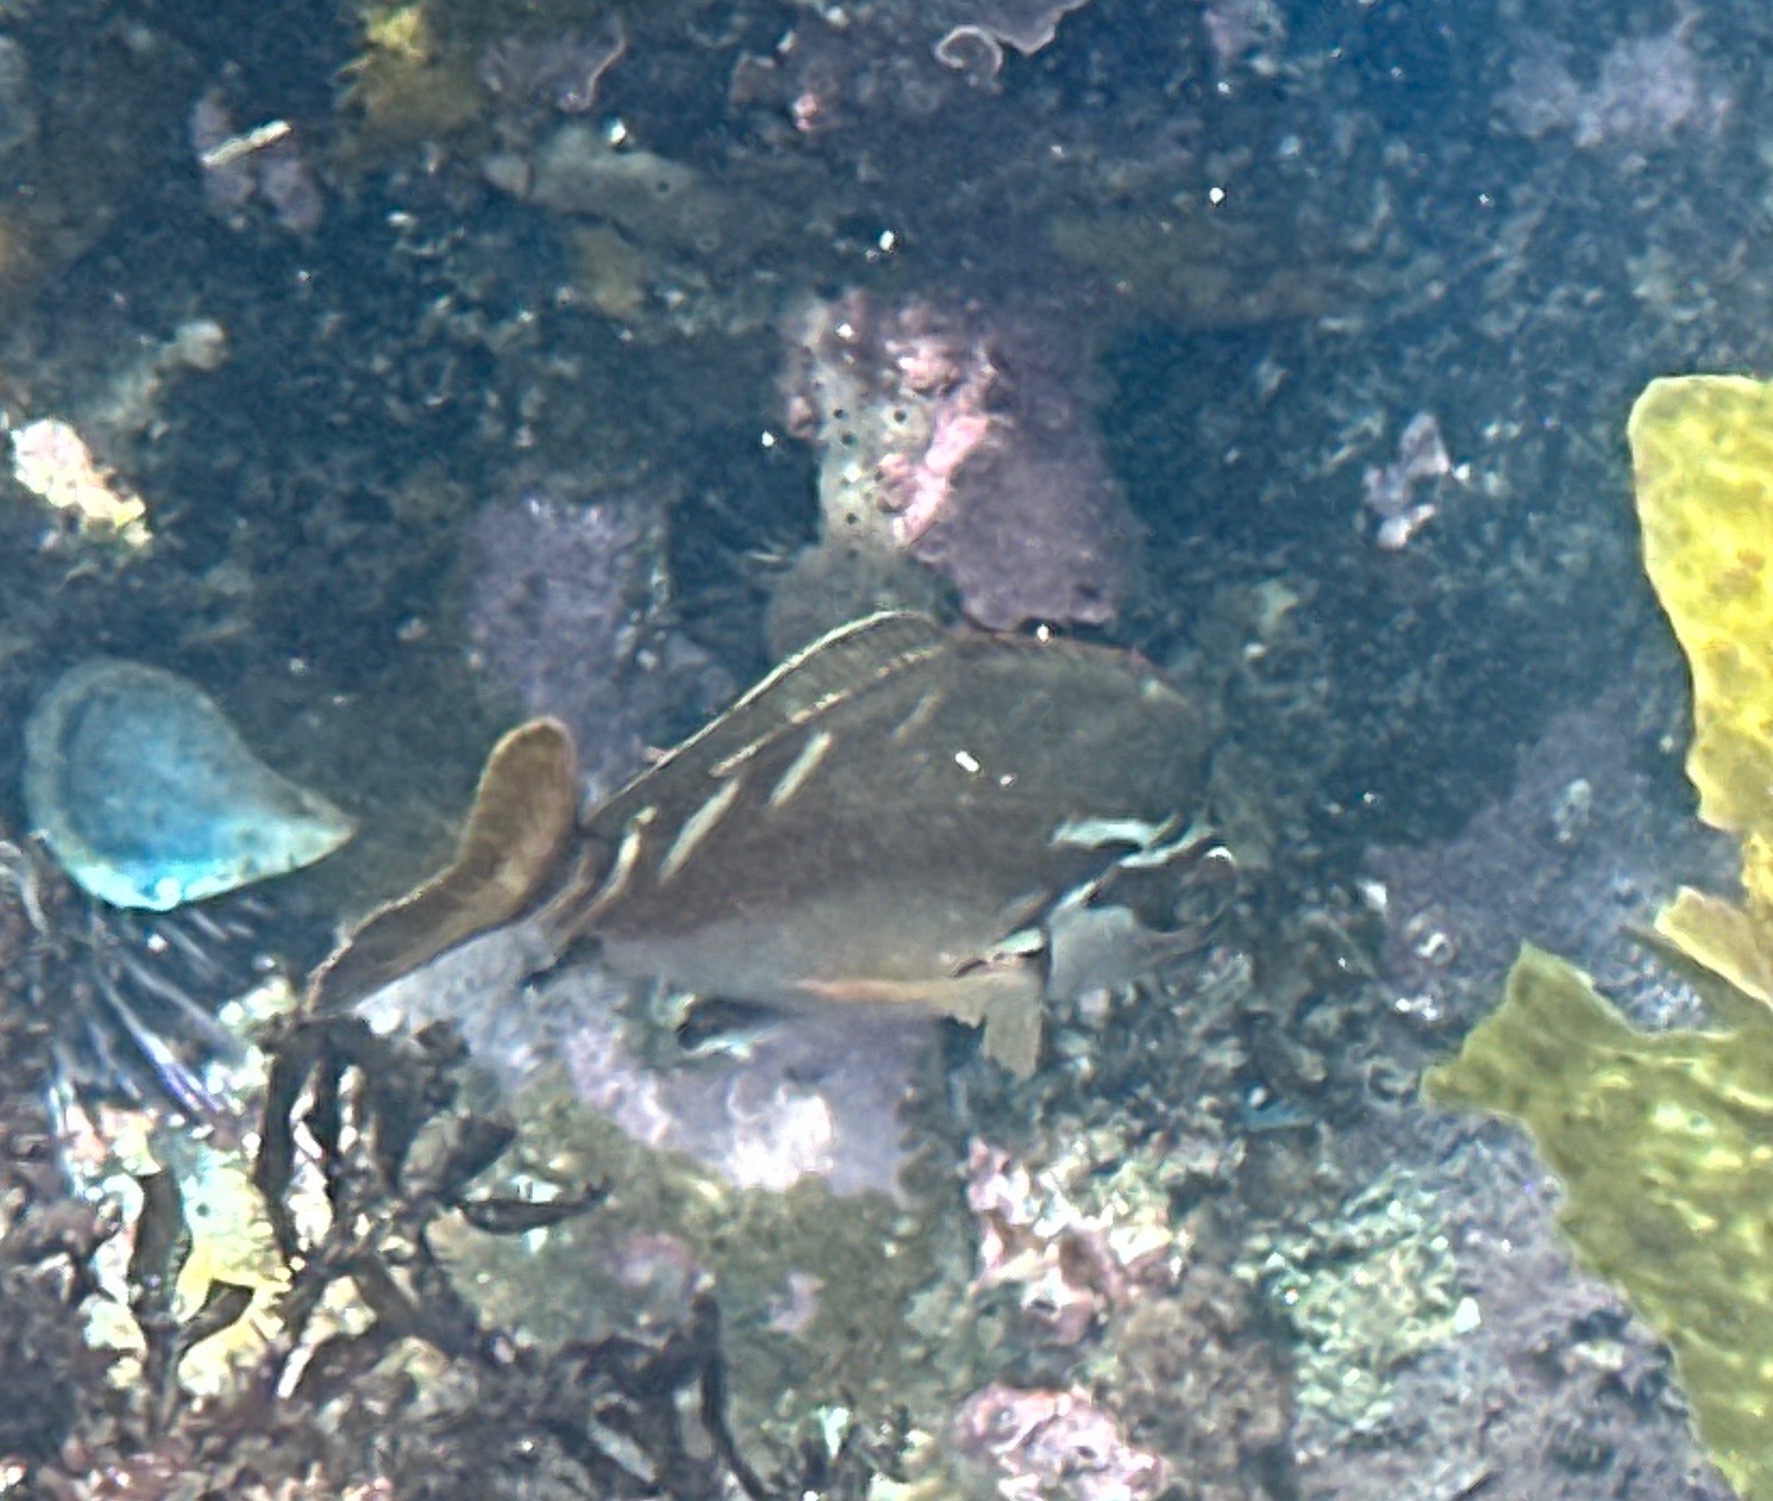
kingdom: Animalia
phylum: Chordata
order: Perciformes
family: Latridae
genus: Morwong
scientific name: Morwong fuscus
